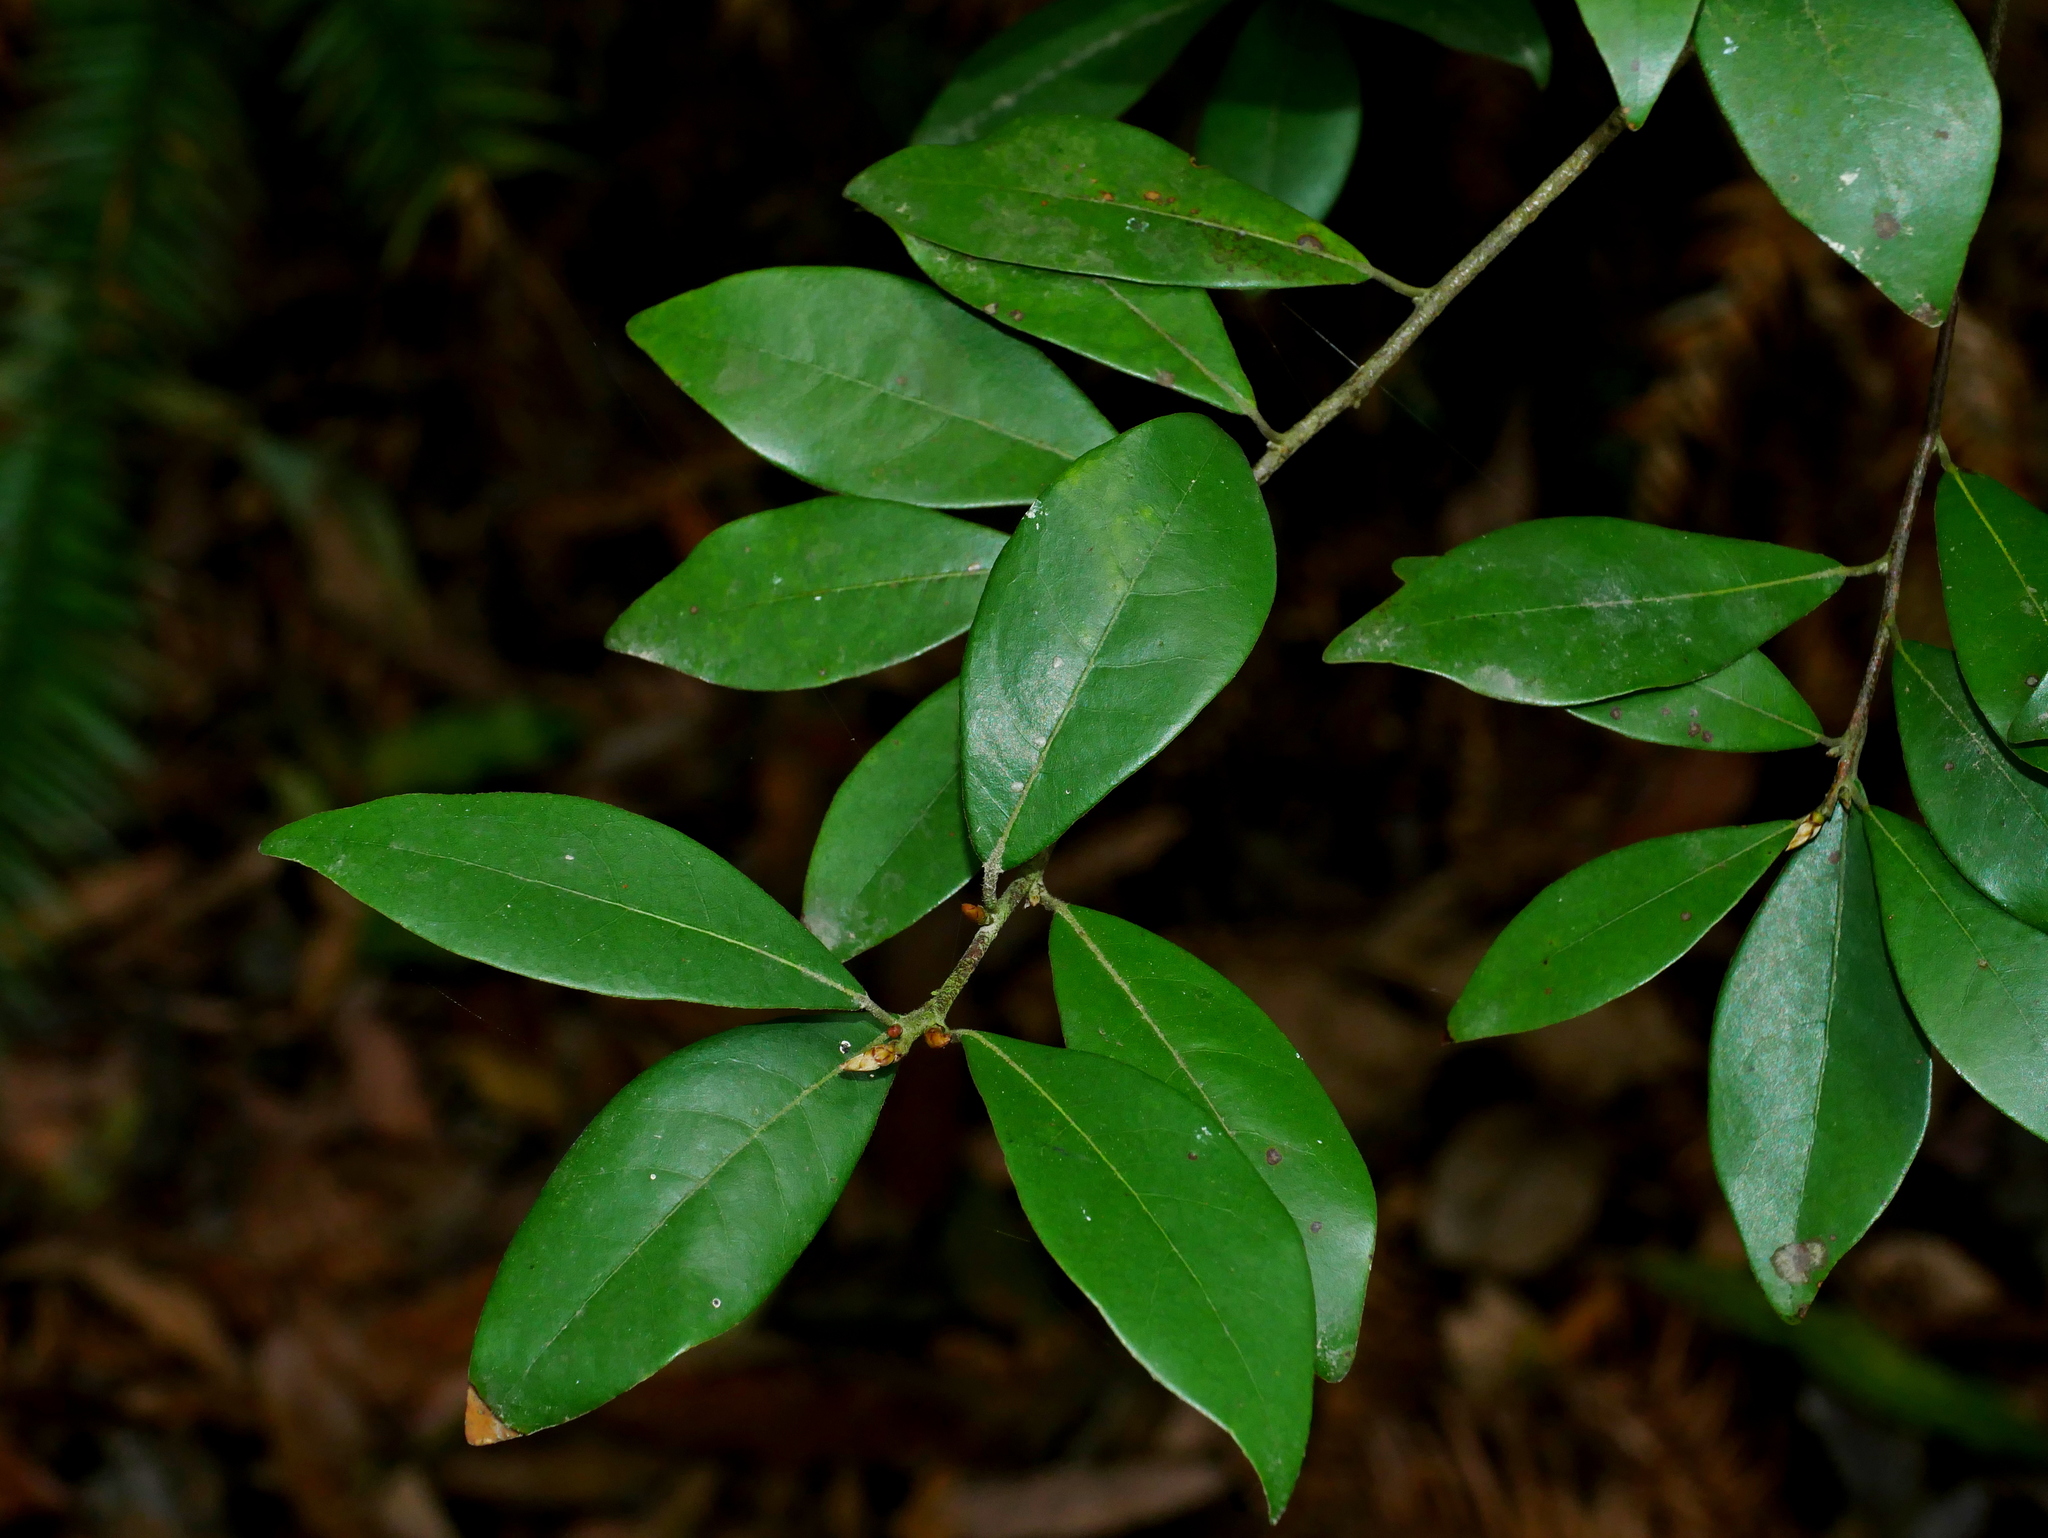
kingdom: Plantae
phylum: Tracheophyta
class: Magnoliopsida
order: Laurales
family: Lauraceae
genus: Litsea
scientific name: Litsea rotundifolia
